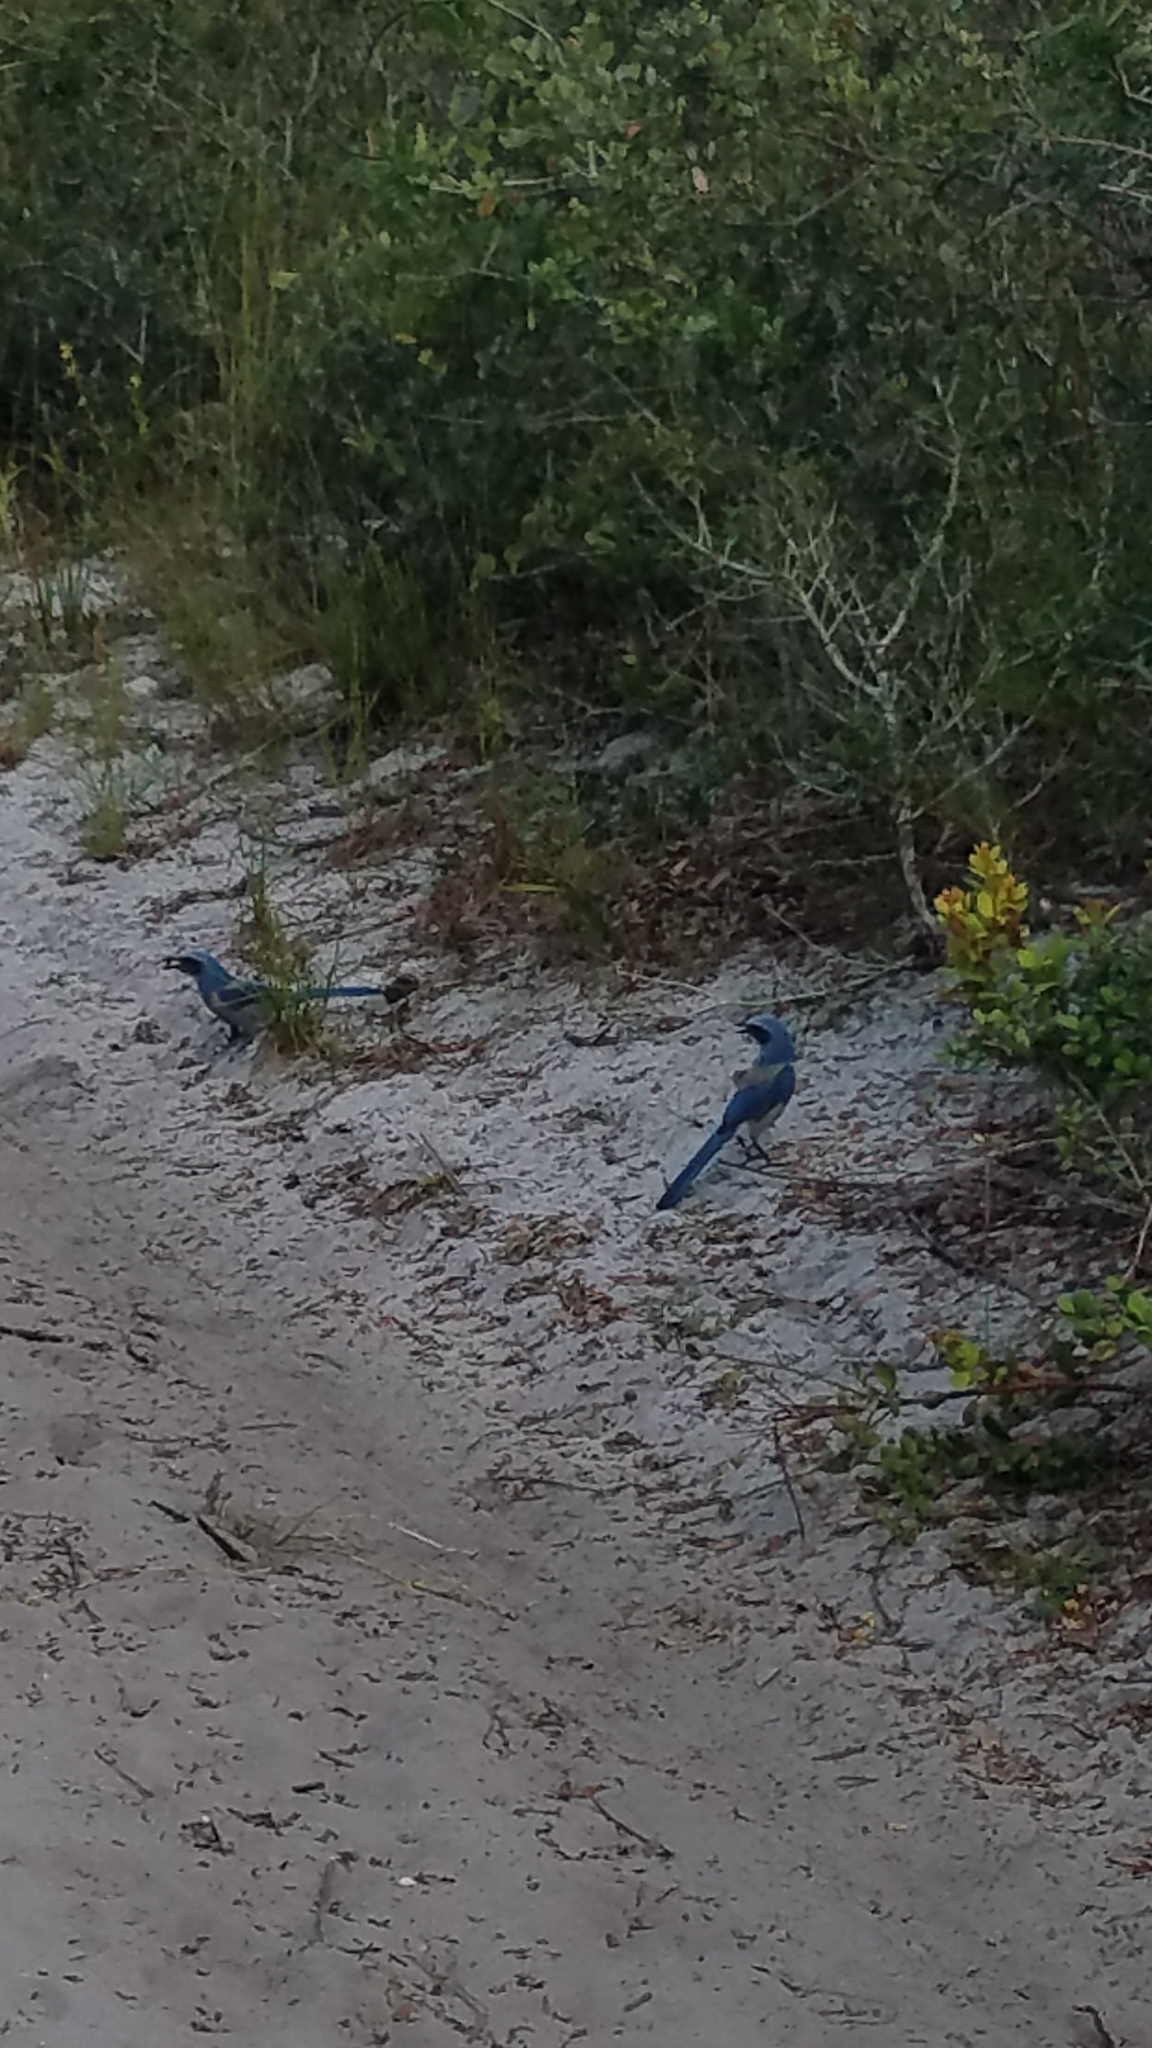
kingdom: Animalia
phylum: Chordata
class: Aves
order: Passeriformes
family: Corvidae
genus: Aphelocoma
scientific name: Aphelocoma coerulescens
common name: Florida scrub jay
